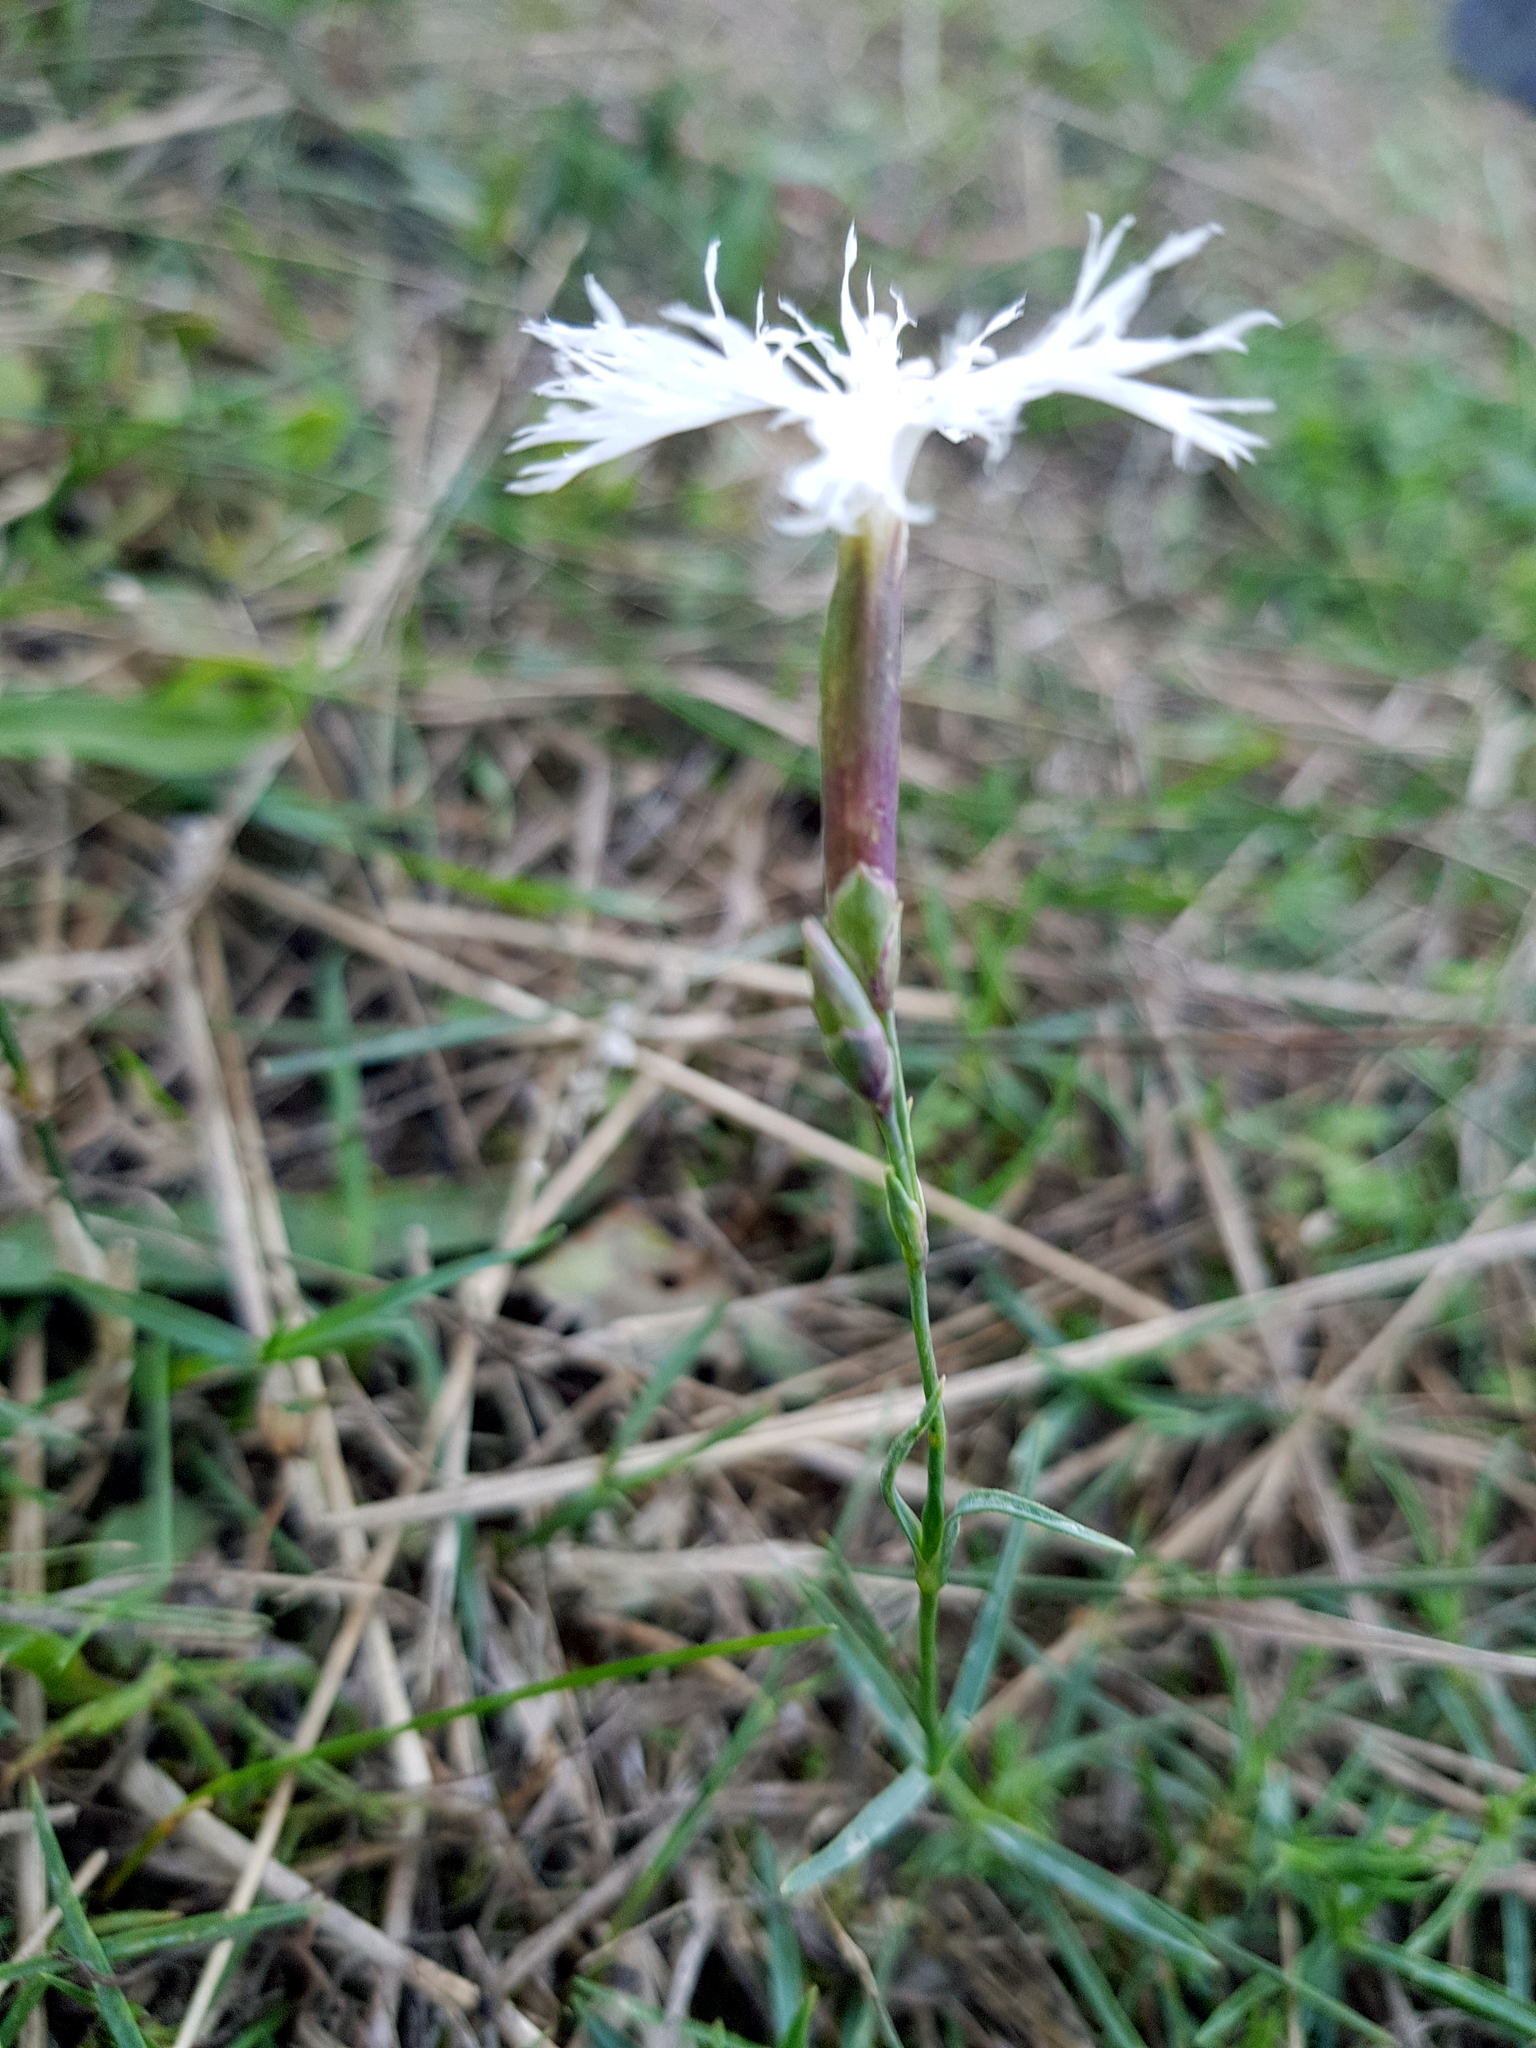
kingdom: Plantae
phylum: Tracheophyta
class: Magnoliopsida
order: Caryophyllales
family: Caryophyllaceae
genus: Dianthus
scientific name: Dianthus superbus
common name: Fringed pink
